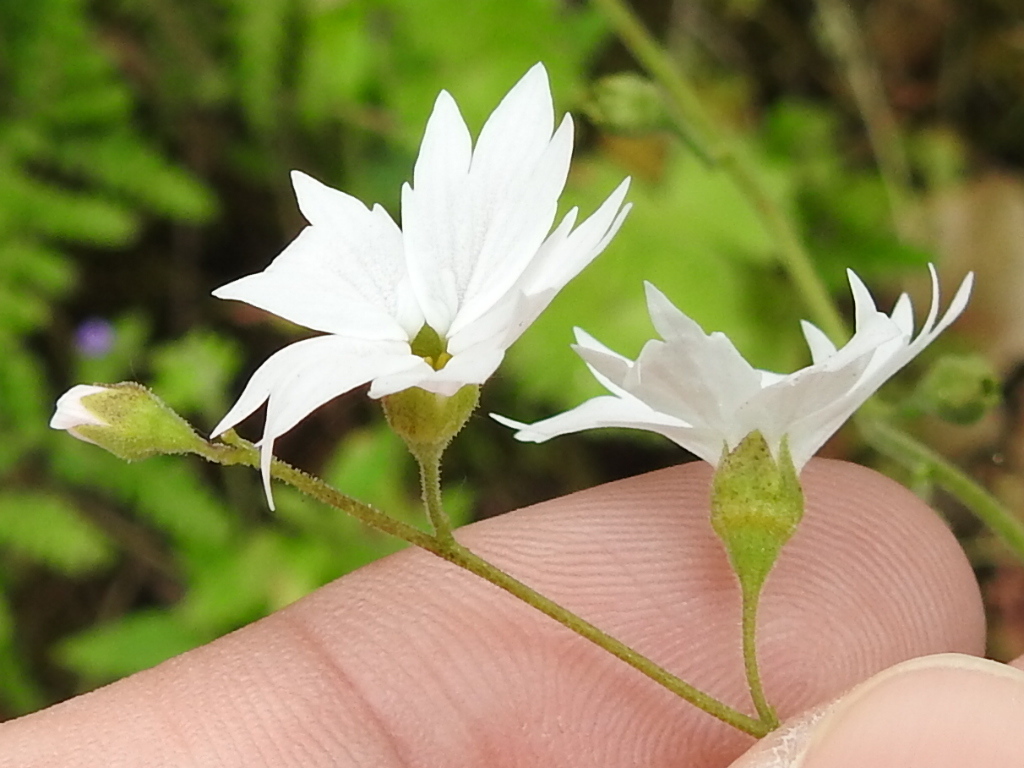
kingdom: Plantae
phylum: Tracheophyta
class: Magnoliopsida
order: Saxifragales
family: Saxifragaceae
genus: Lithophragma
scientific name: Lithophragma affine
